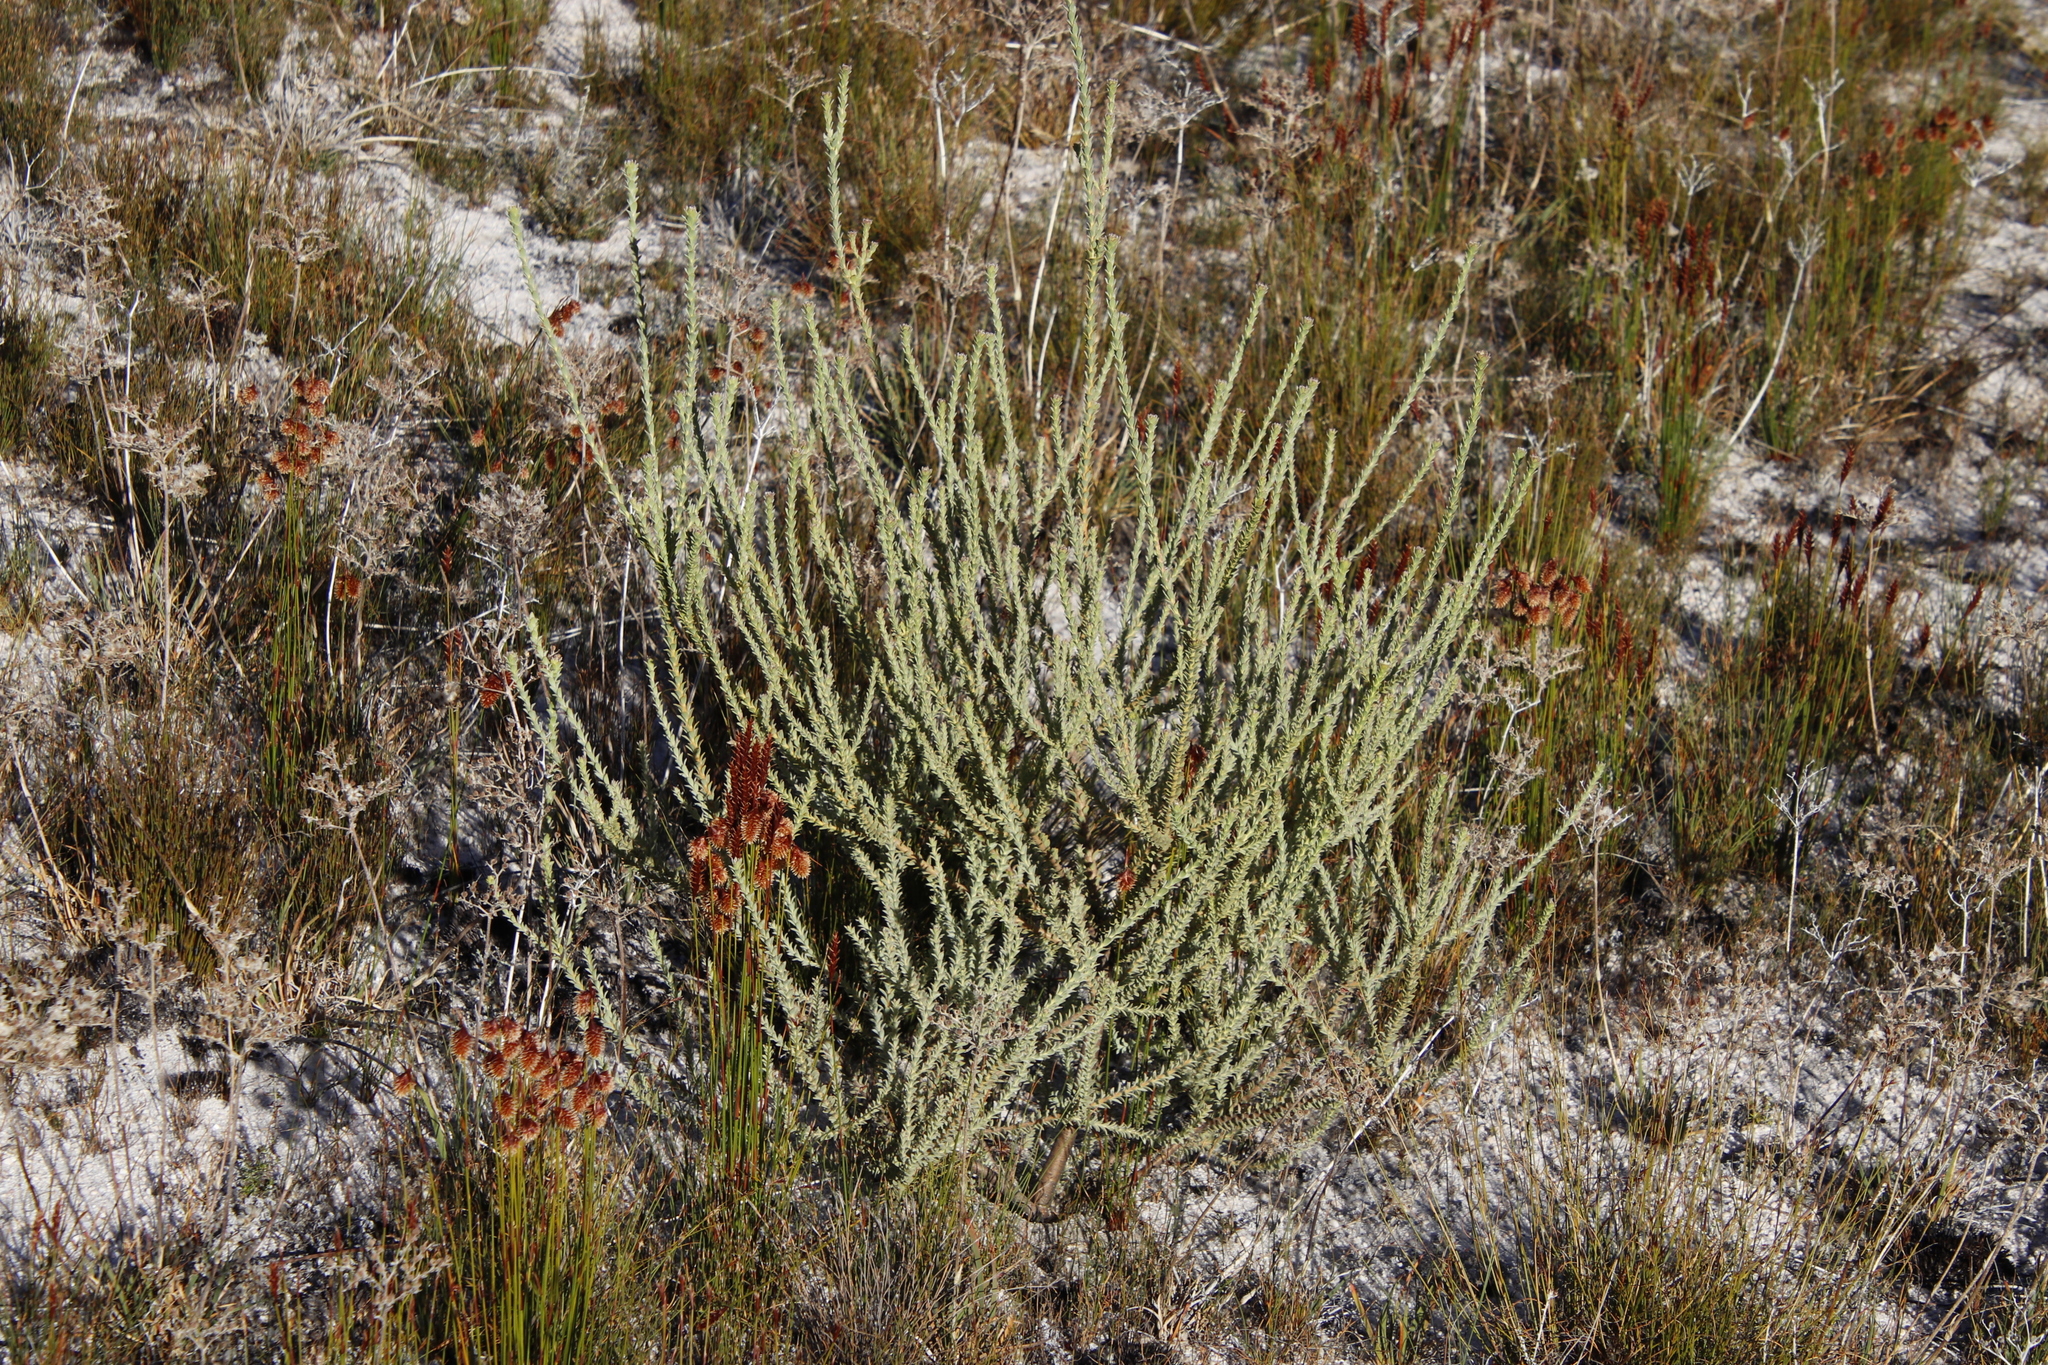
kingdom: Plantae
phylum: Tracheophyta
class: Magnoliopsida
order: Proteales
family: Proteaceae
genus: Leucadendron
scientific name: Leucadendron dubium
